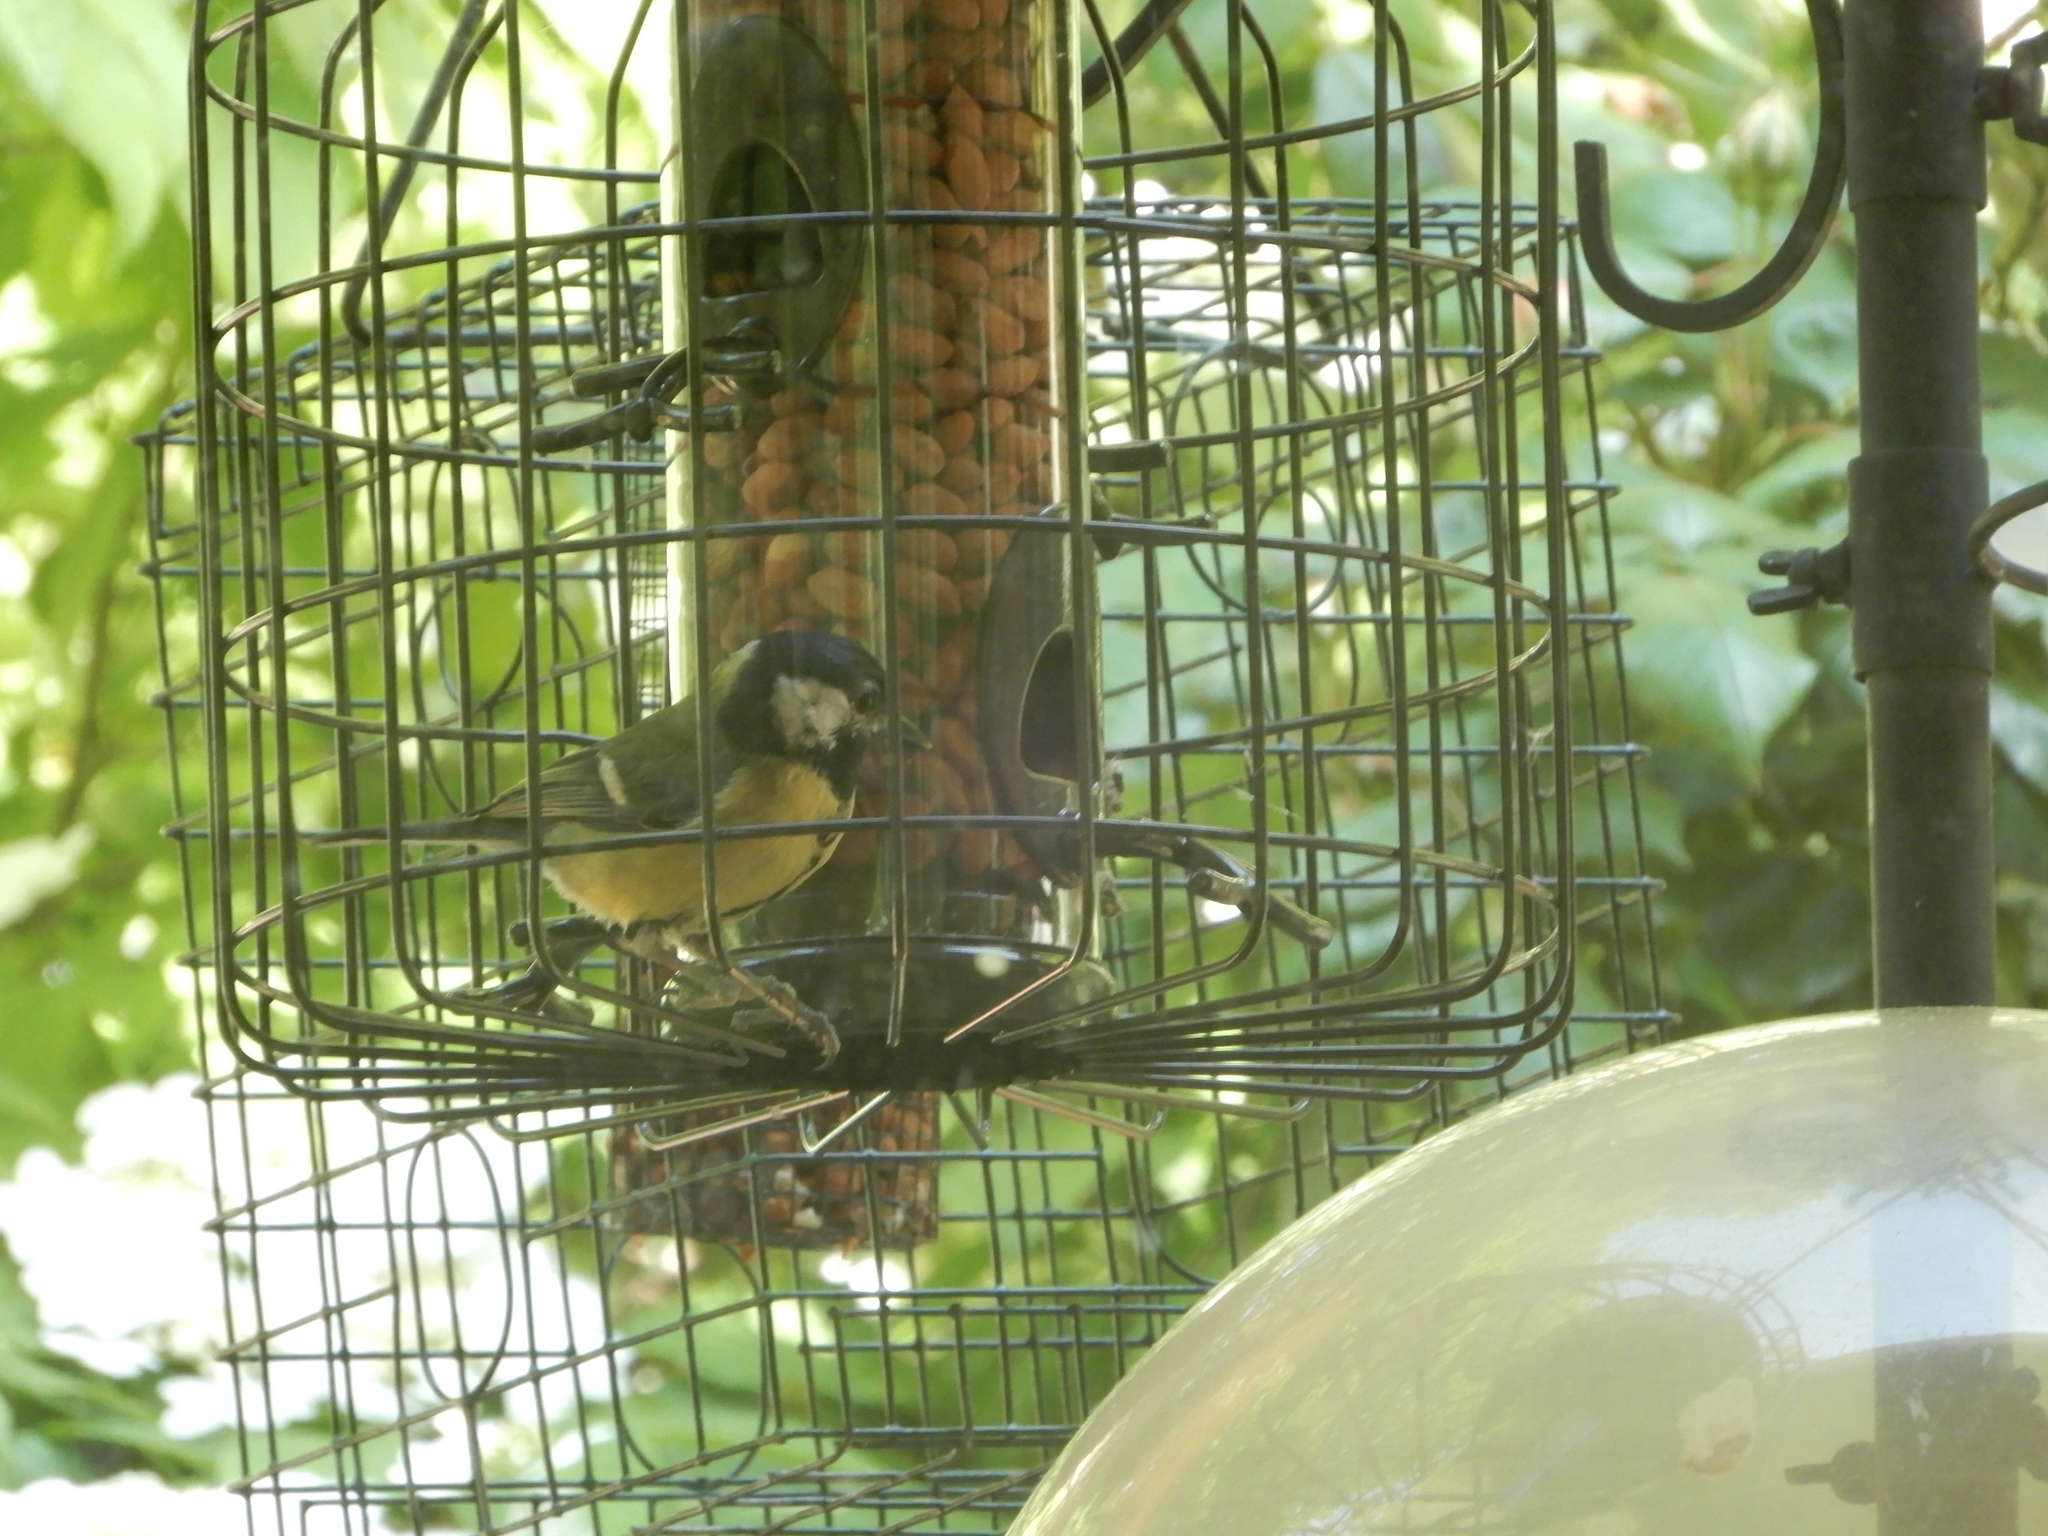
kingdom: Animalia
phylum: Chordata
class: Aves
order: Passeriformes
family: Paridae
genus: Parus
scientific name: Parus major
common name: Great tit
